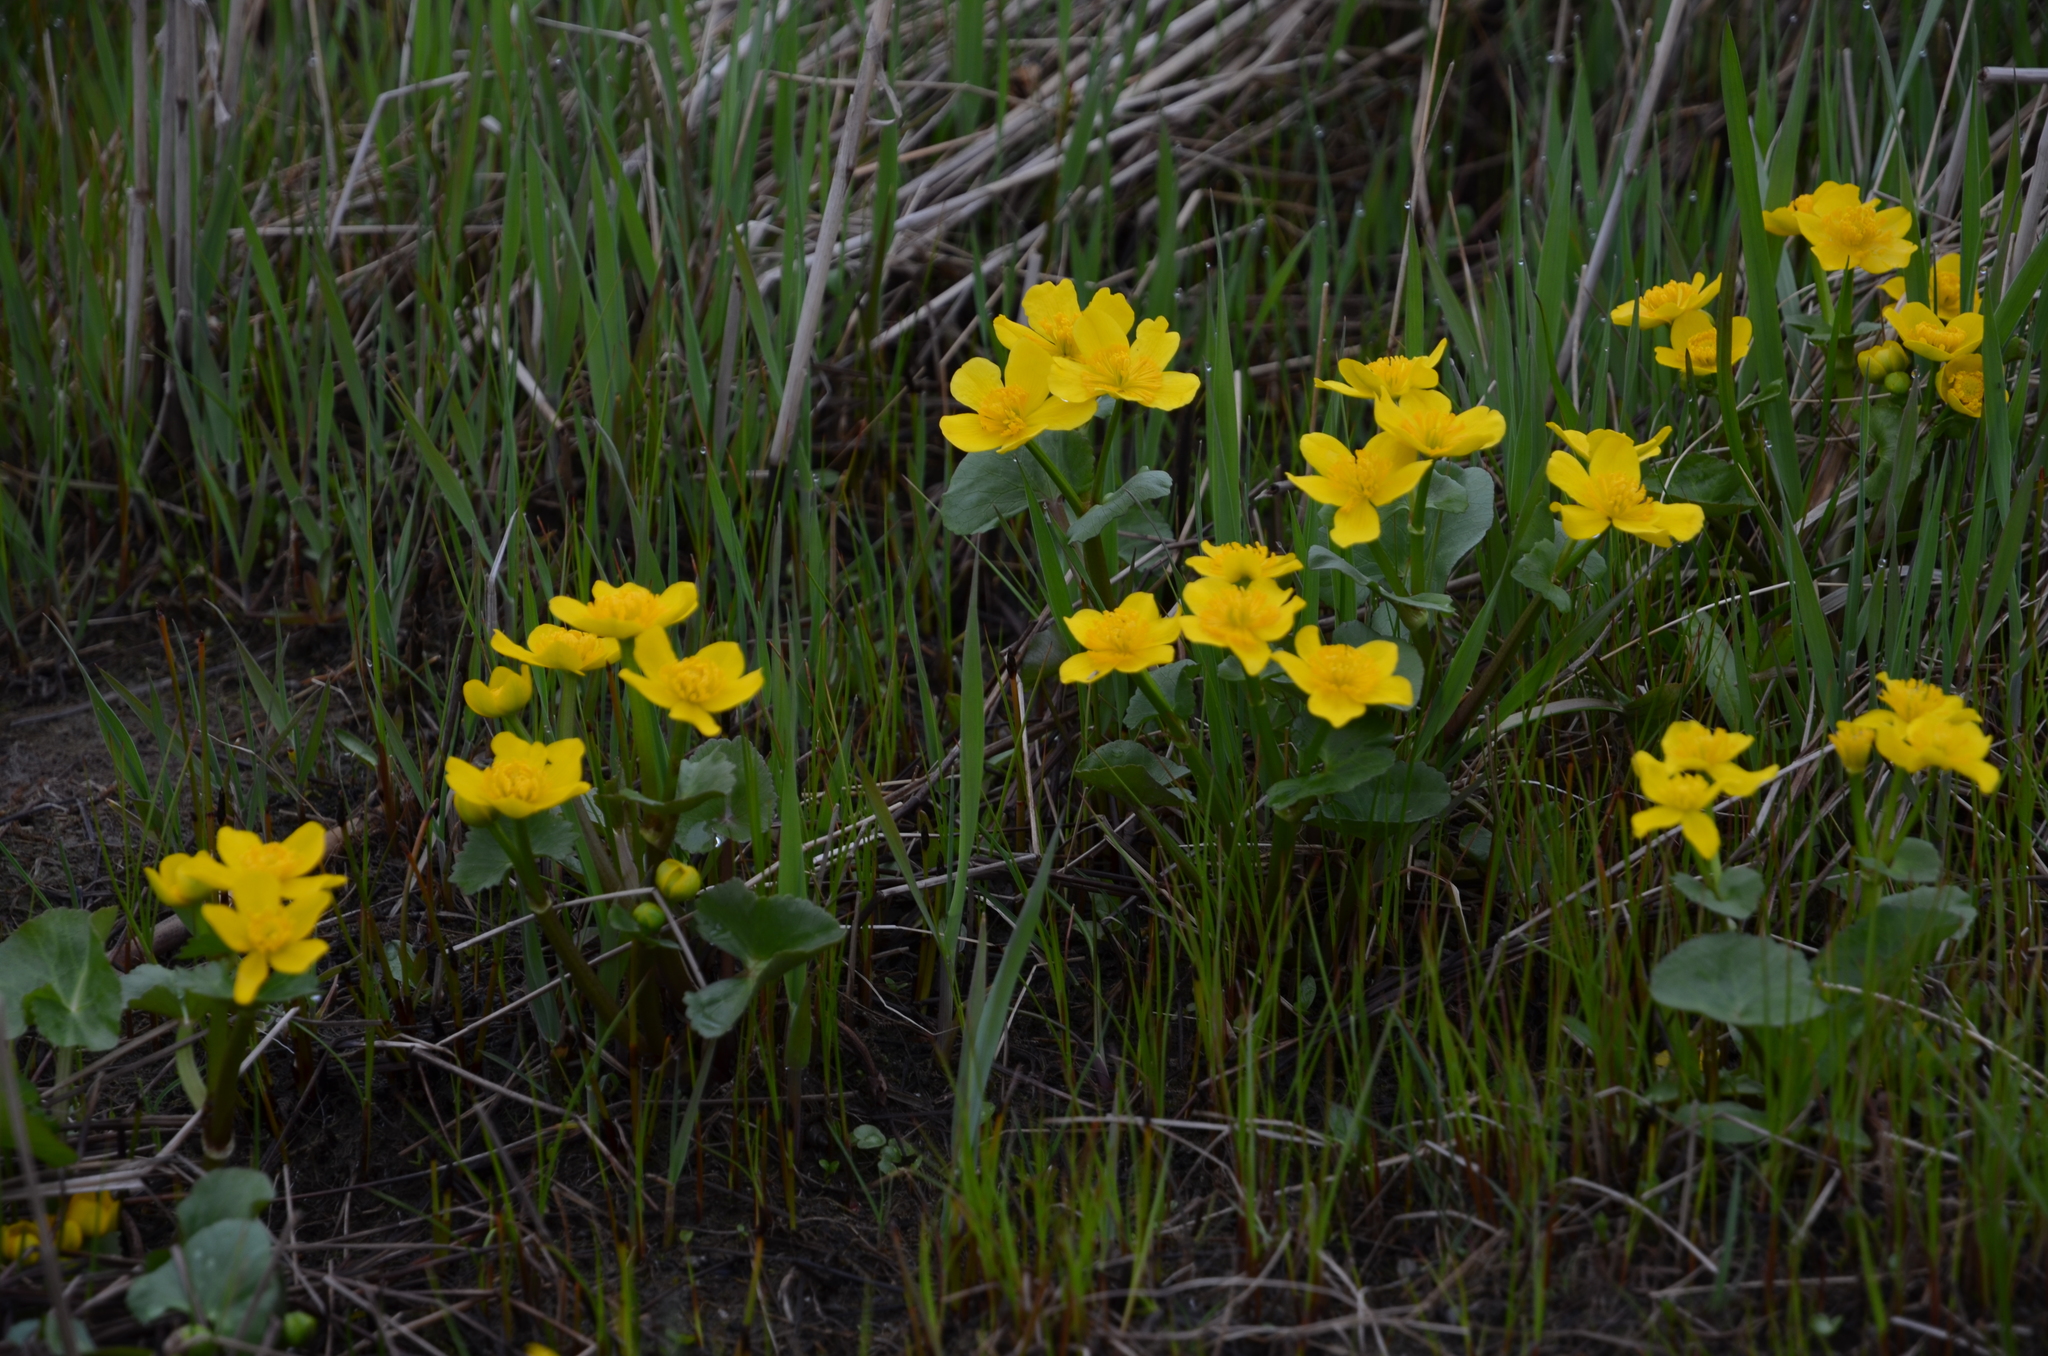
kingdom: Plantae
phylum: Tracheophyta
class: Magnoliopsida
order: Ranunculales
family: Ranunculaceae
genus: Caltha
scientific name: Caltha palustris
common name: Marsh marigold
